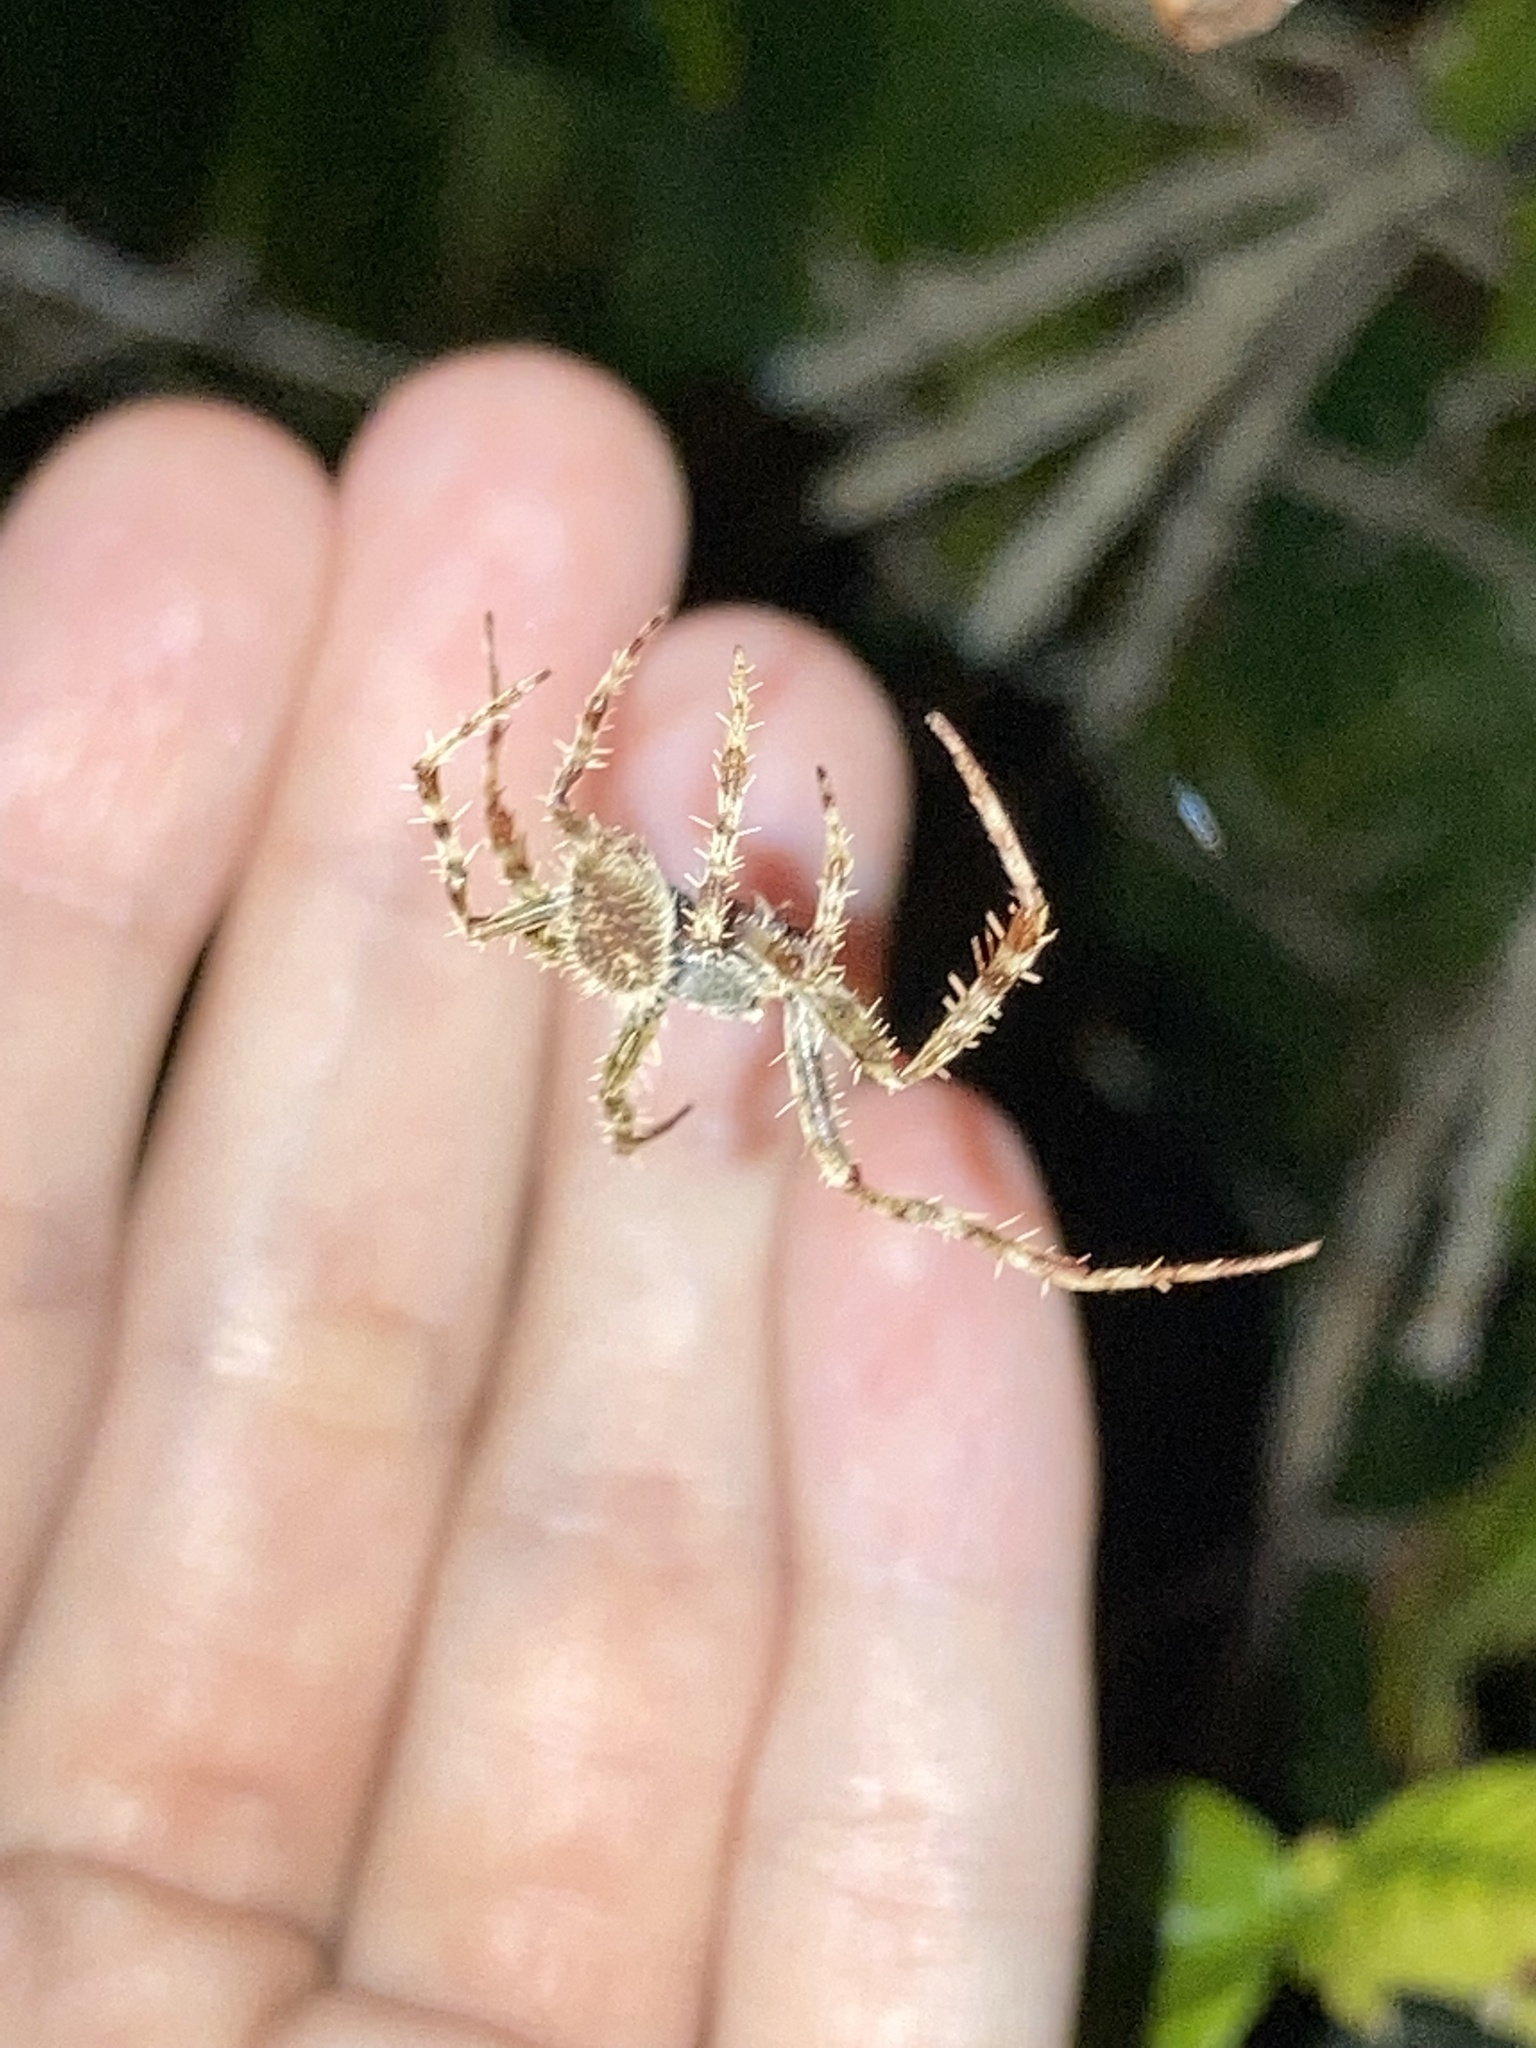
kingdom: Animalia
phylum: Arthropoda
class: Arachnida
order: Araneae
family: Araneidae
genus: Eriophora
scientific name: Eriophora ravilla
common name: Orb weavers
